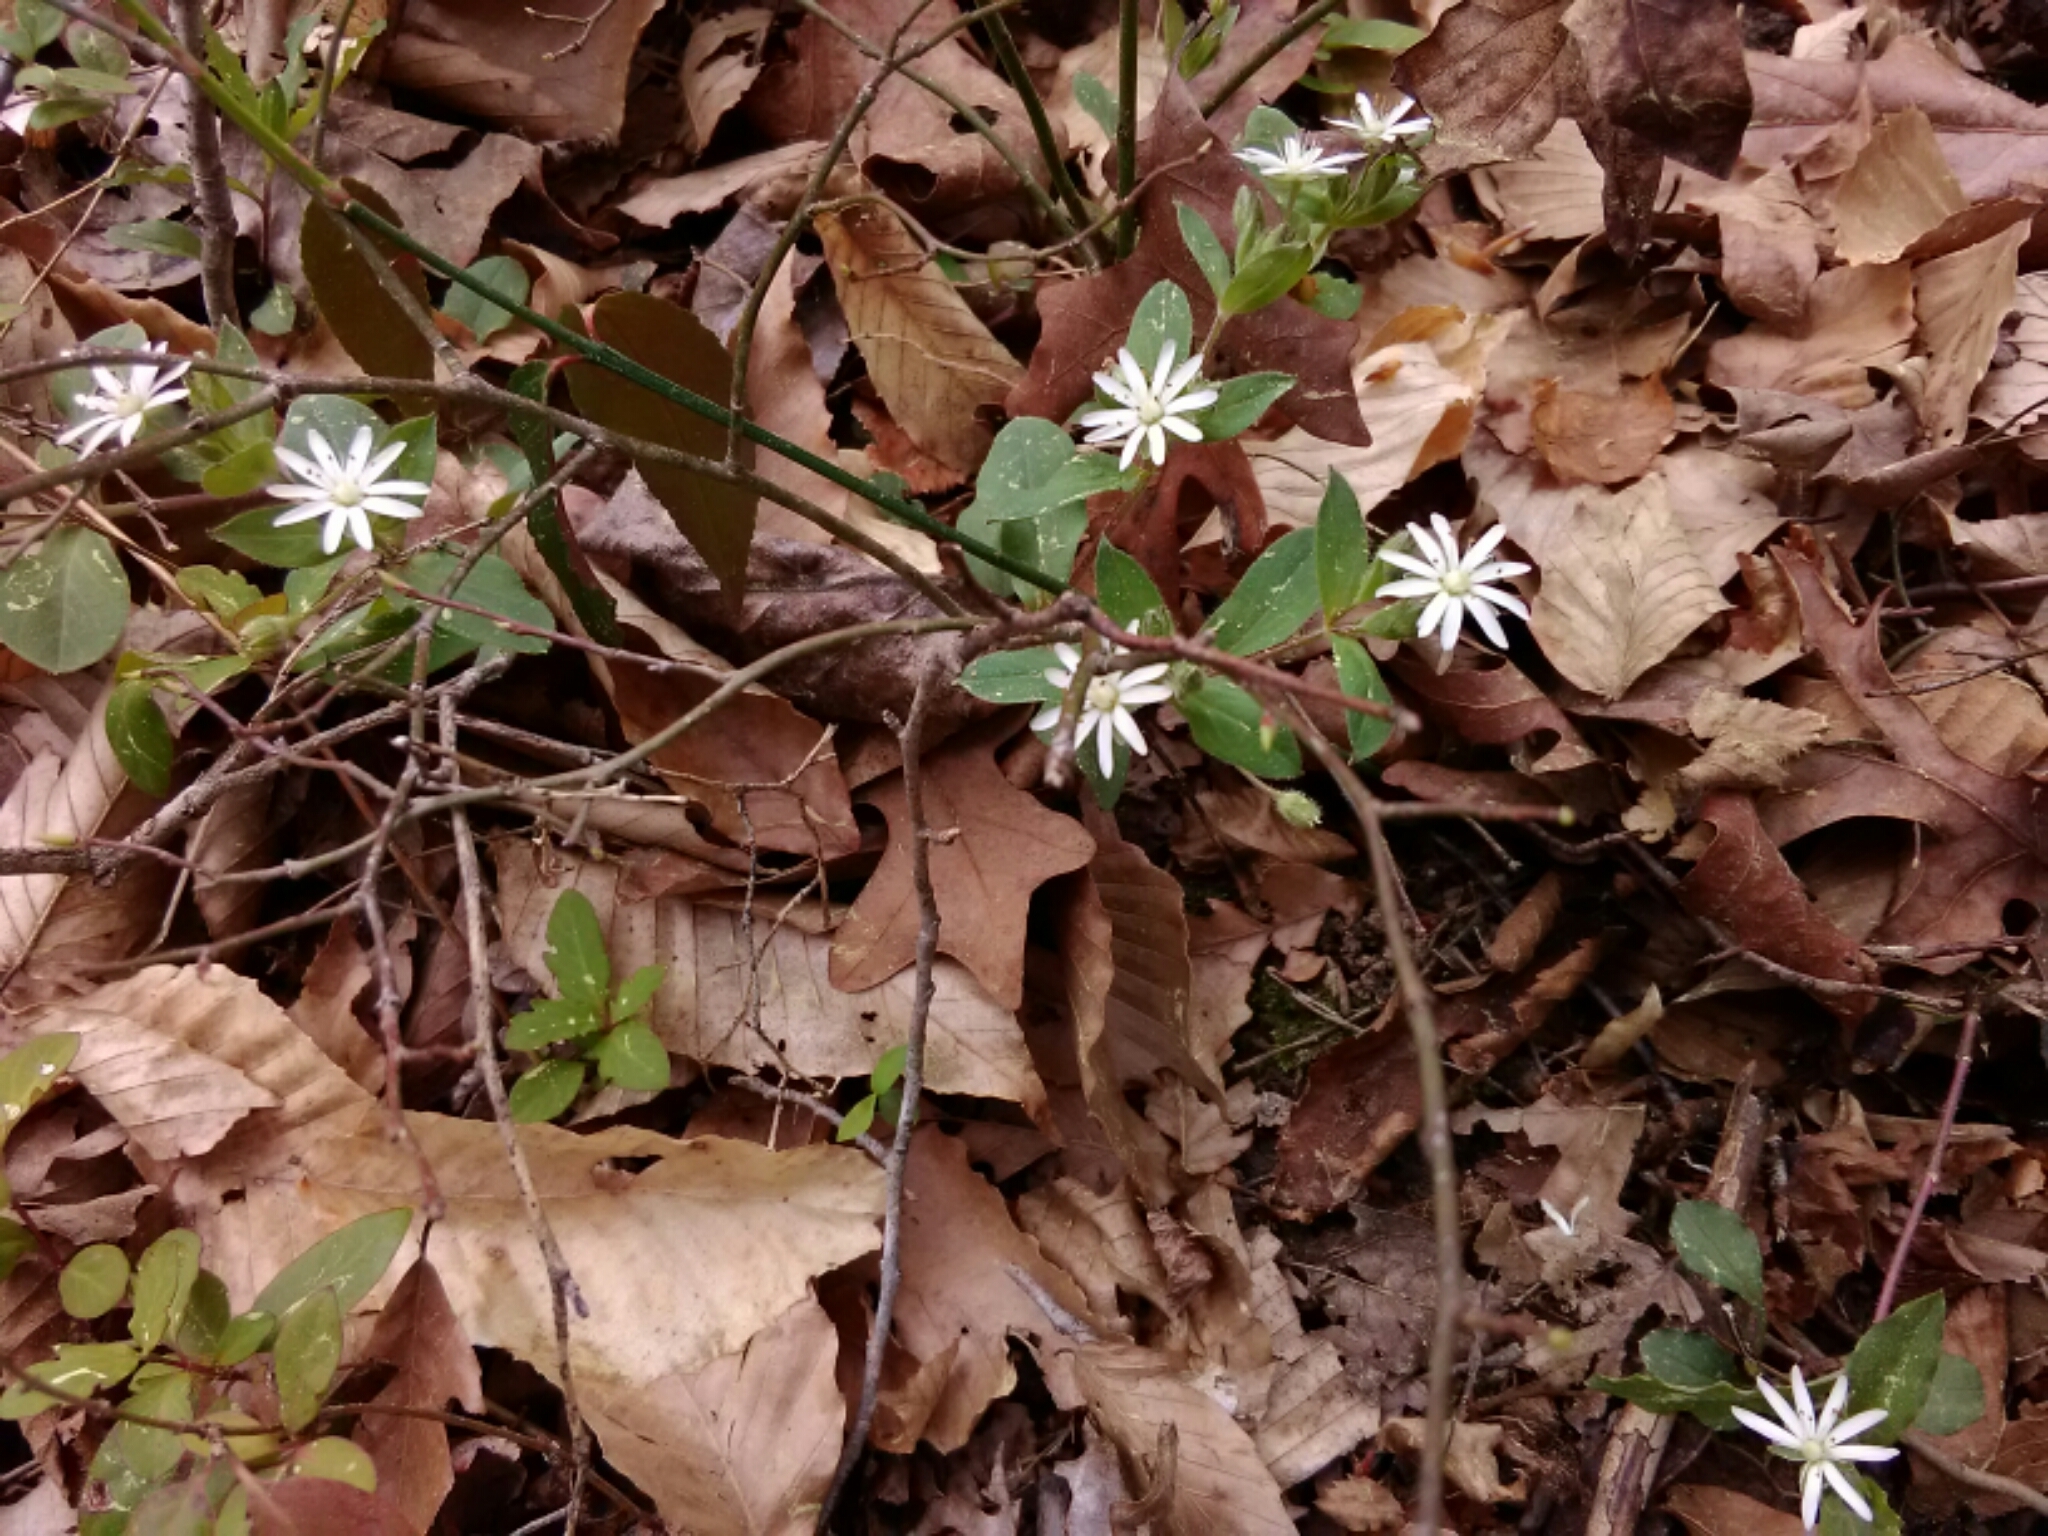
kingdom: Plantae
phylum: Tracheophyta
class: Magnoliopsida
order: Caryophyllales
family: Caryophyllaceae
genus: Stellaria
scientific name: Stellaria pubera
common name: Star chickweed
